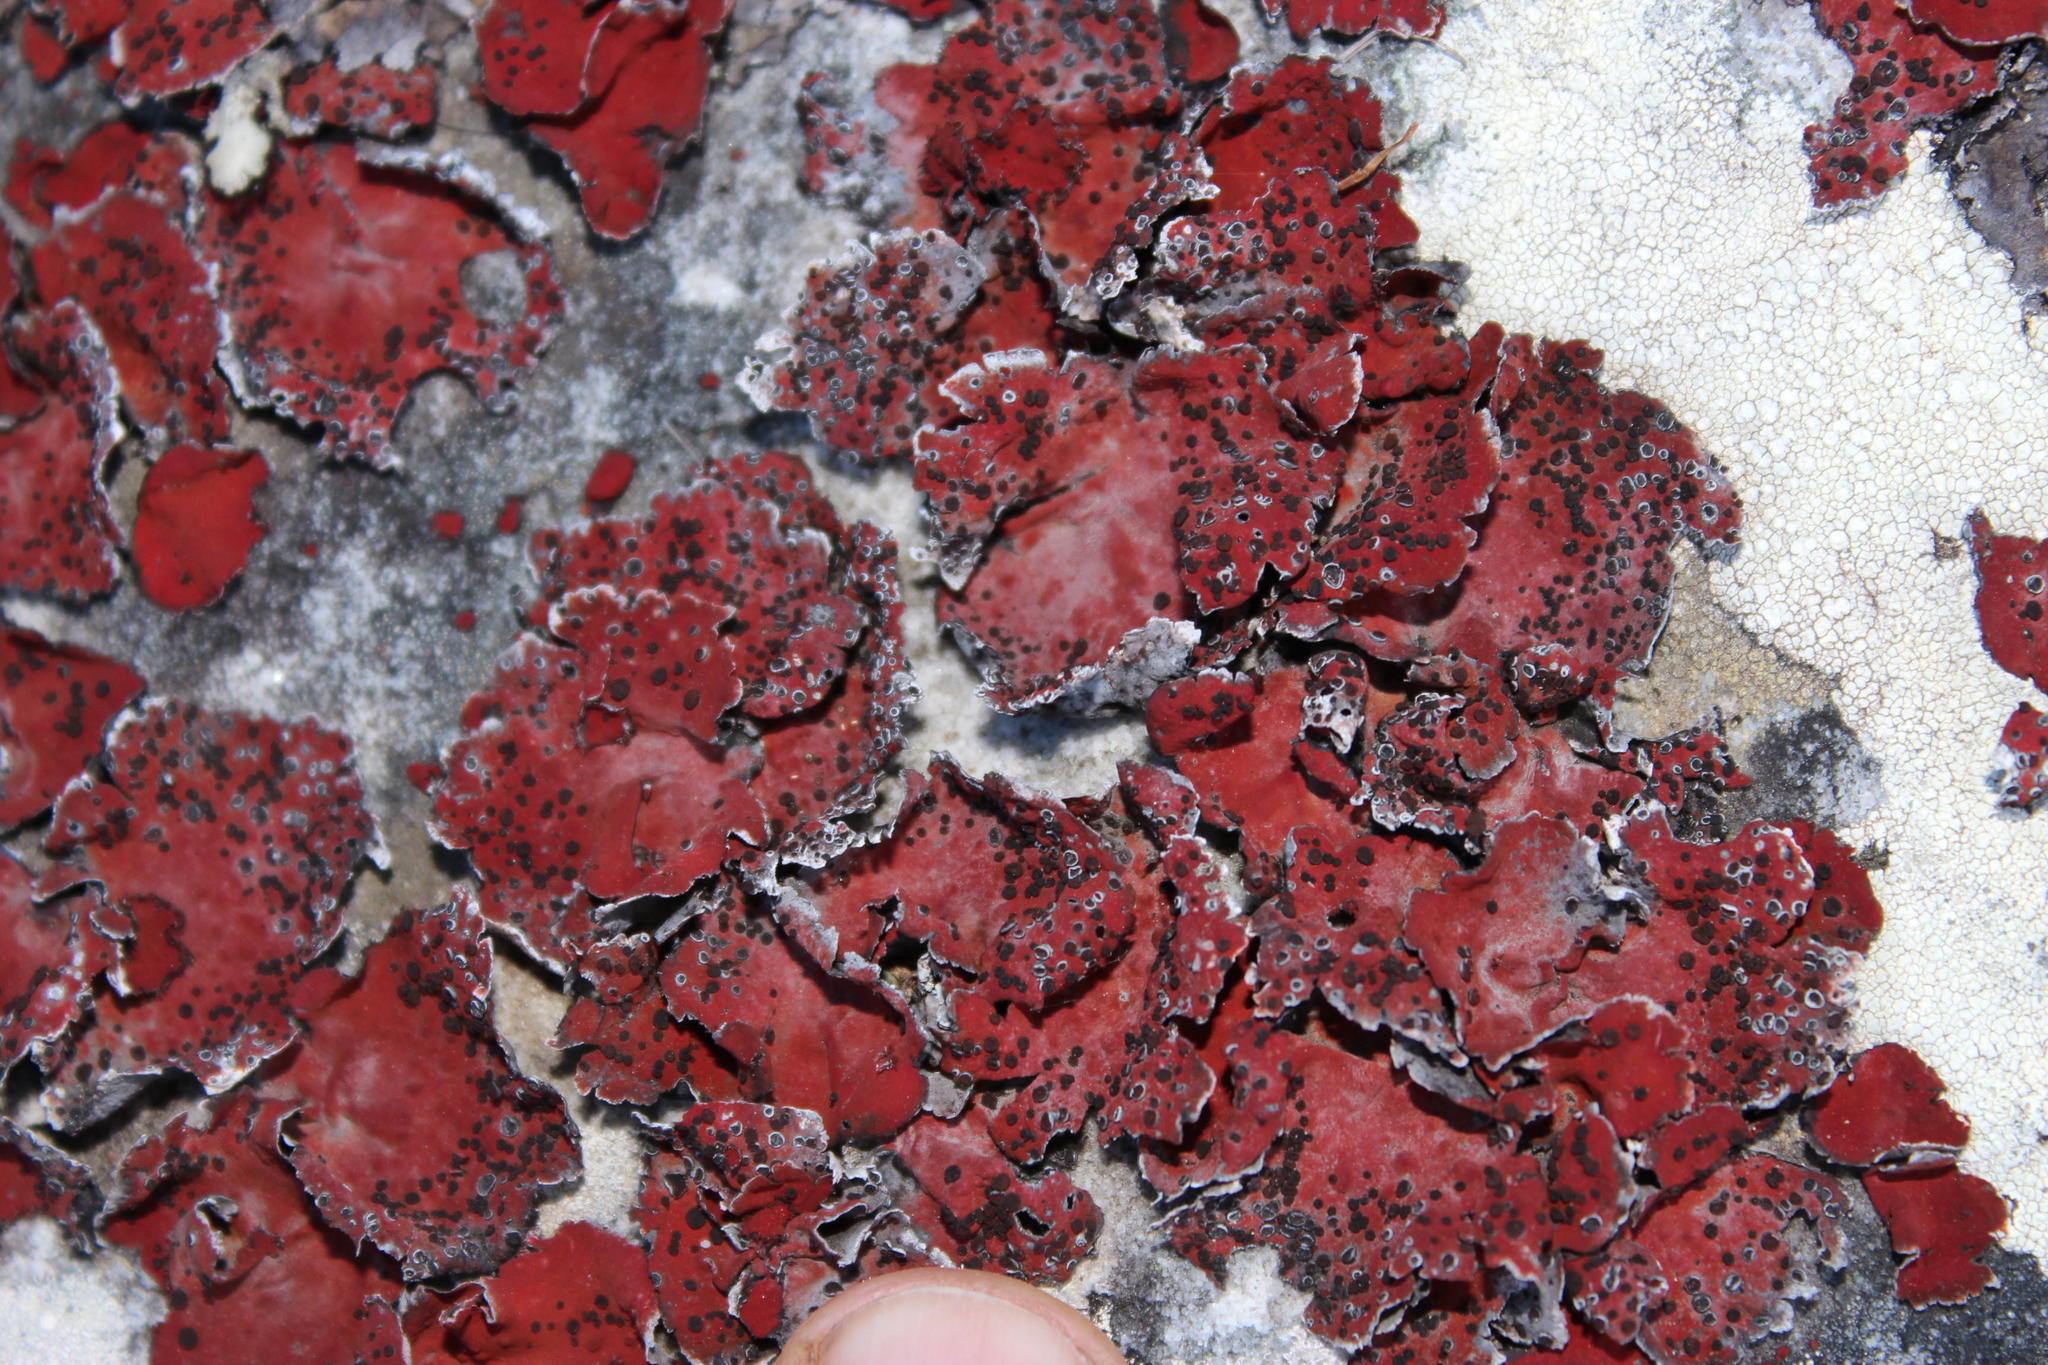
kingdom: Fungi
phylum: Ascomycota
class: Lecanoromycetes
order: Umbilicariales
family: Umbilicariaceae
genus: Lasallia
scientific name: Lasallia rubiginosa
